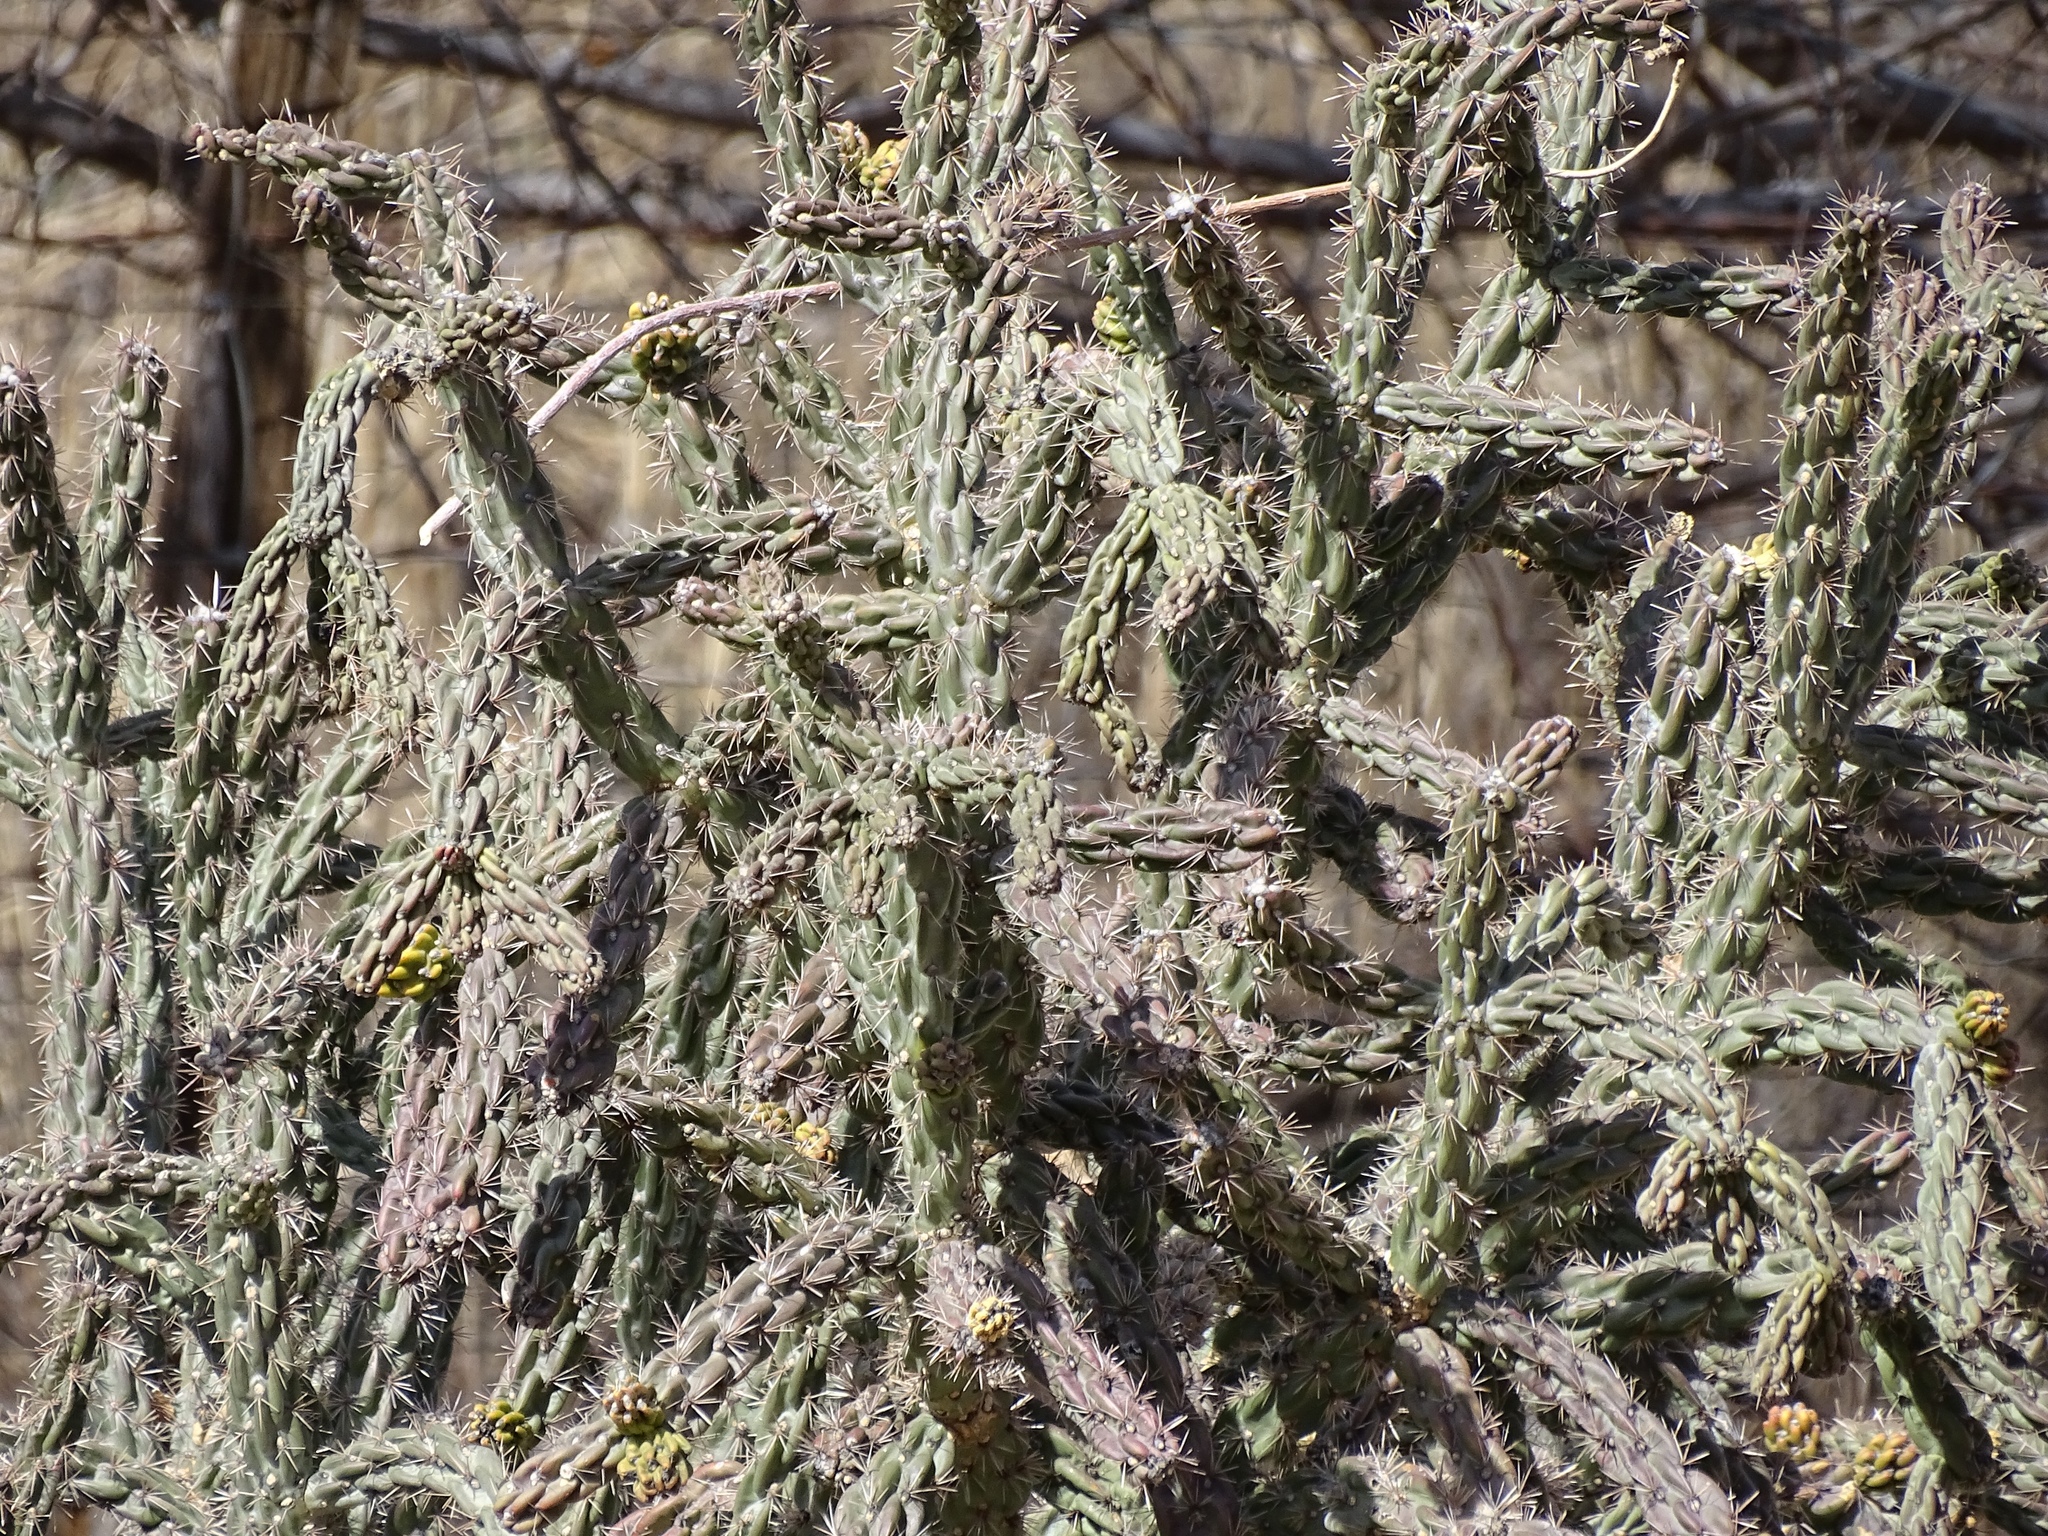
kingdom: Plantae
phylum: Tracheophyta
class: Magnoliopsida
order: Caryophyllales
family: Cactaceae
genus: Cylindropuntia
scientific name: Cylindropuntia imbricata
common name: Candelabrum cactus
